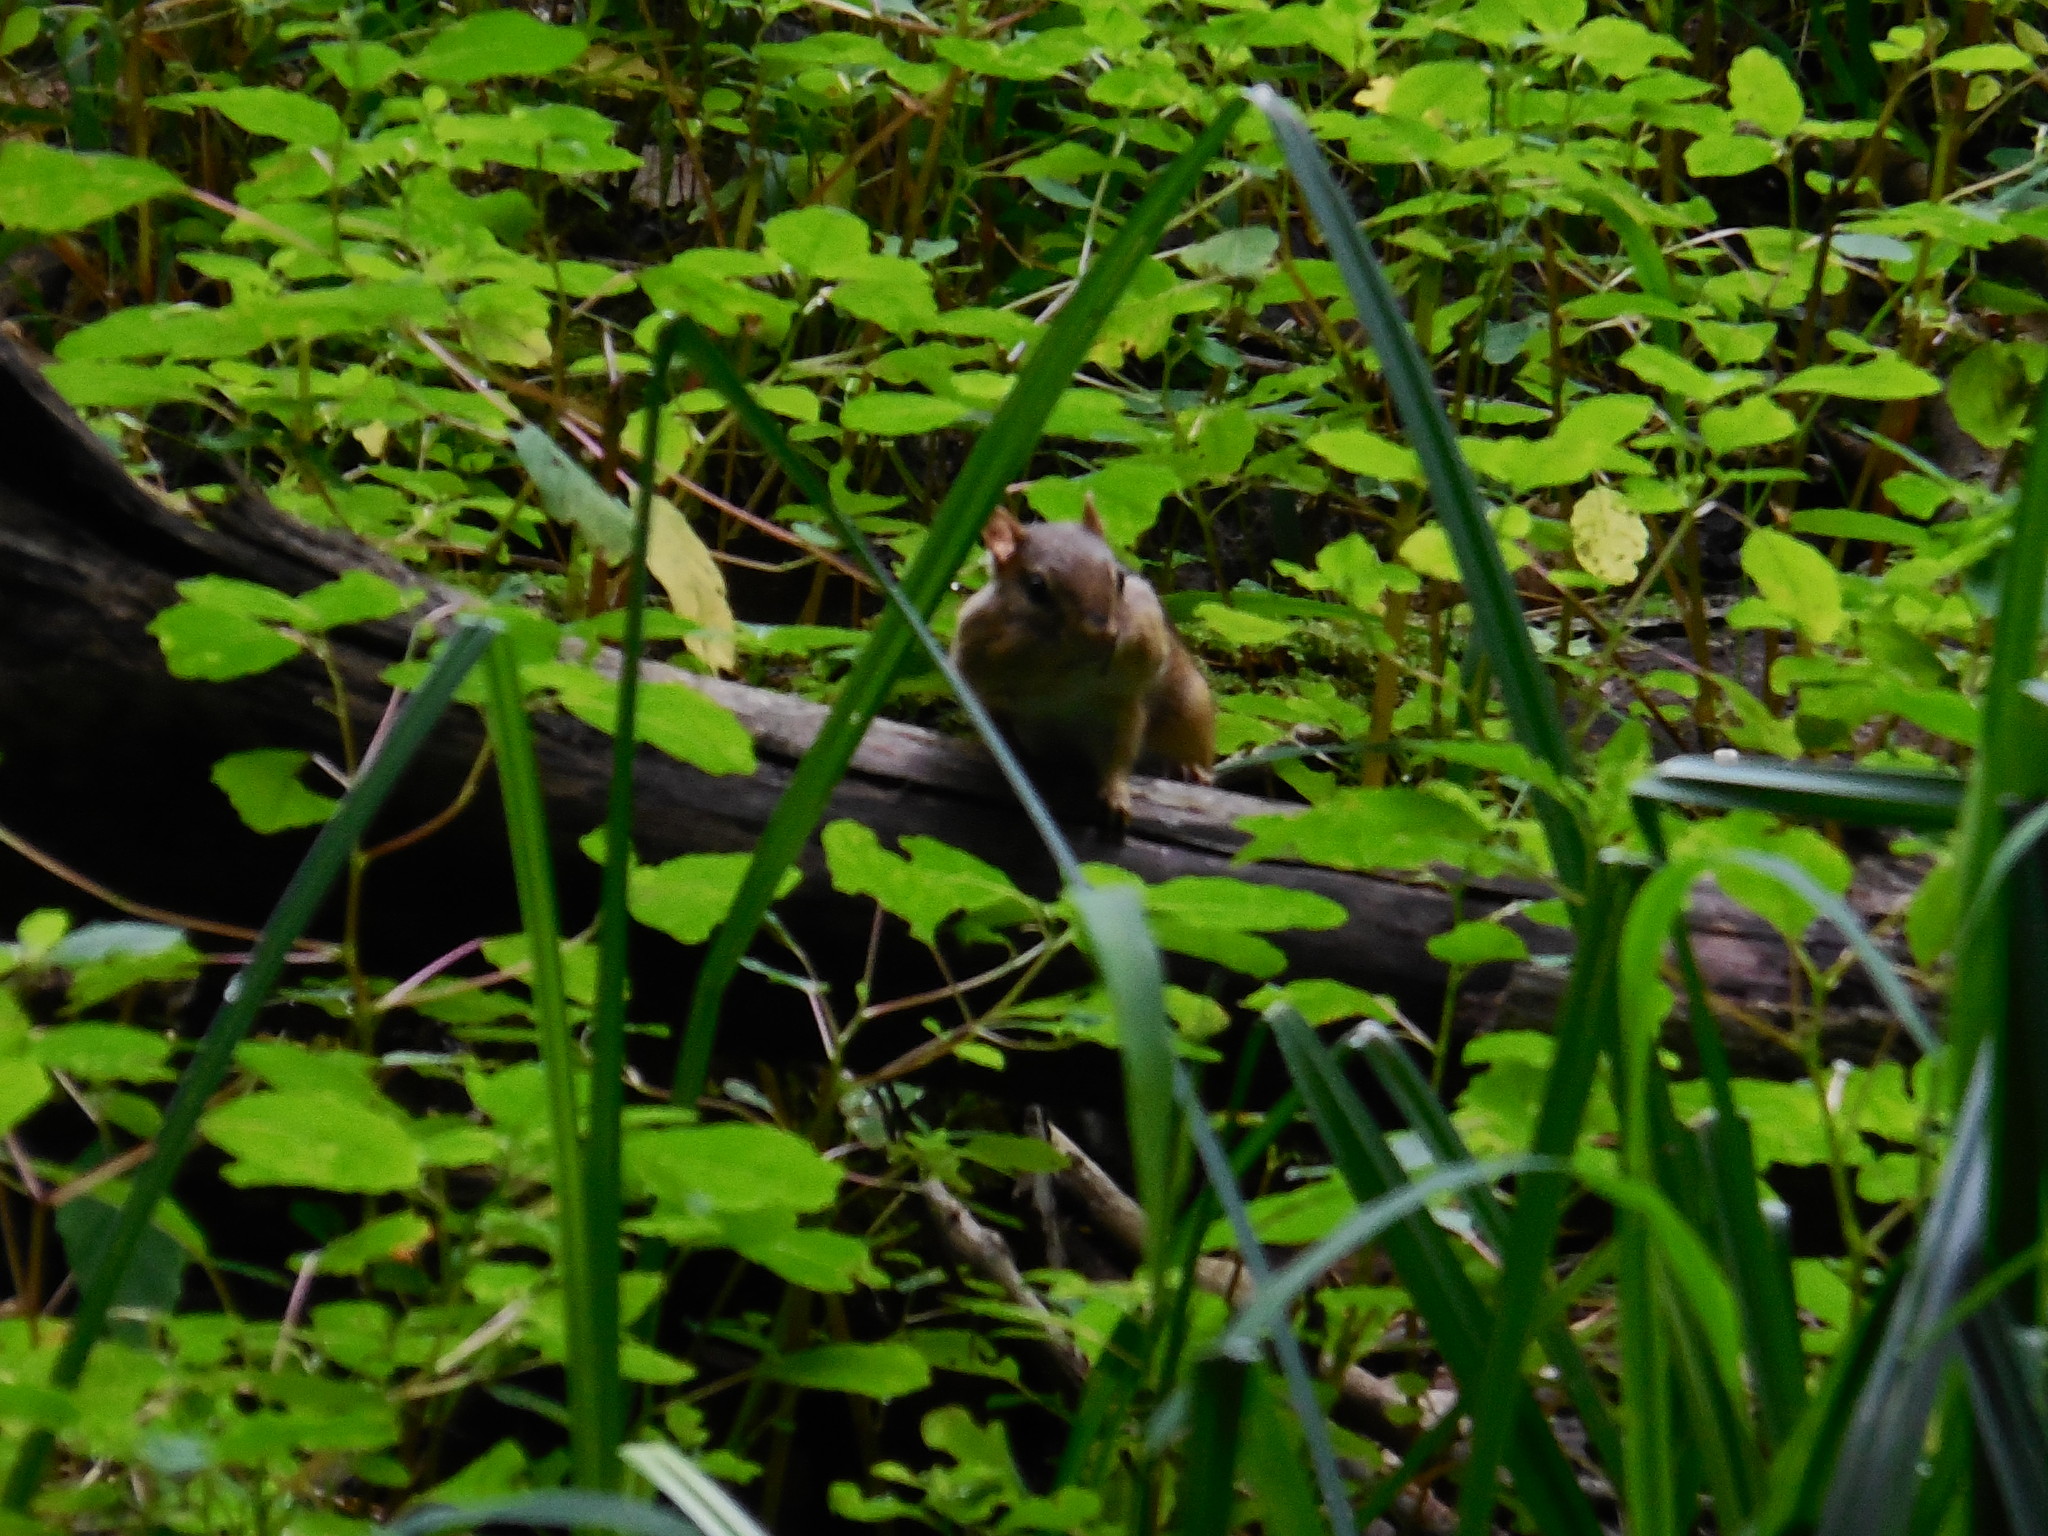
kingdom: Animalia
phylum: Chordata
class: Mammalia
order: Rodentia
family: Sciuridae
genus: Tamias
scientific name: Tamias striatus
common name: Eastern chipmunk
